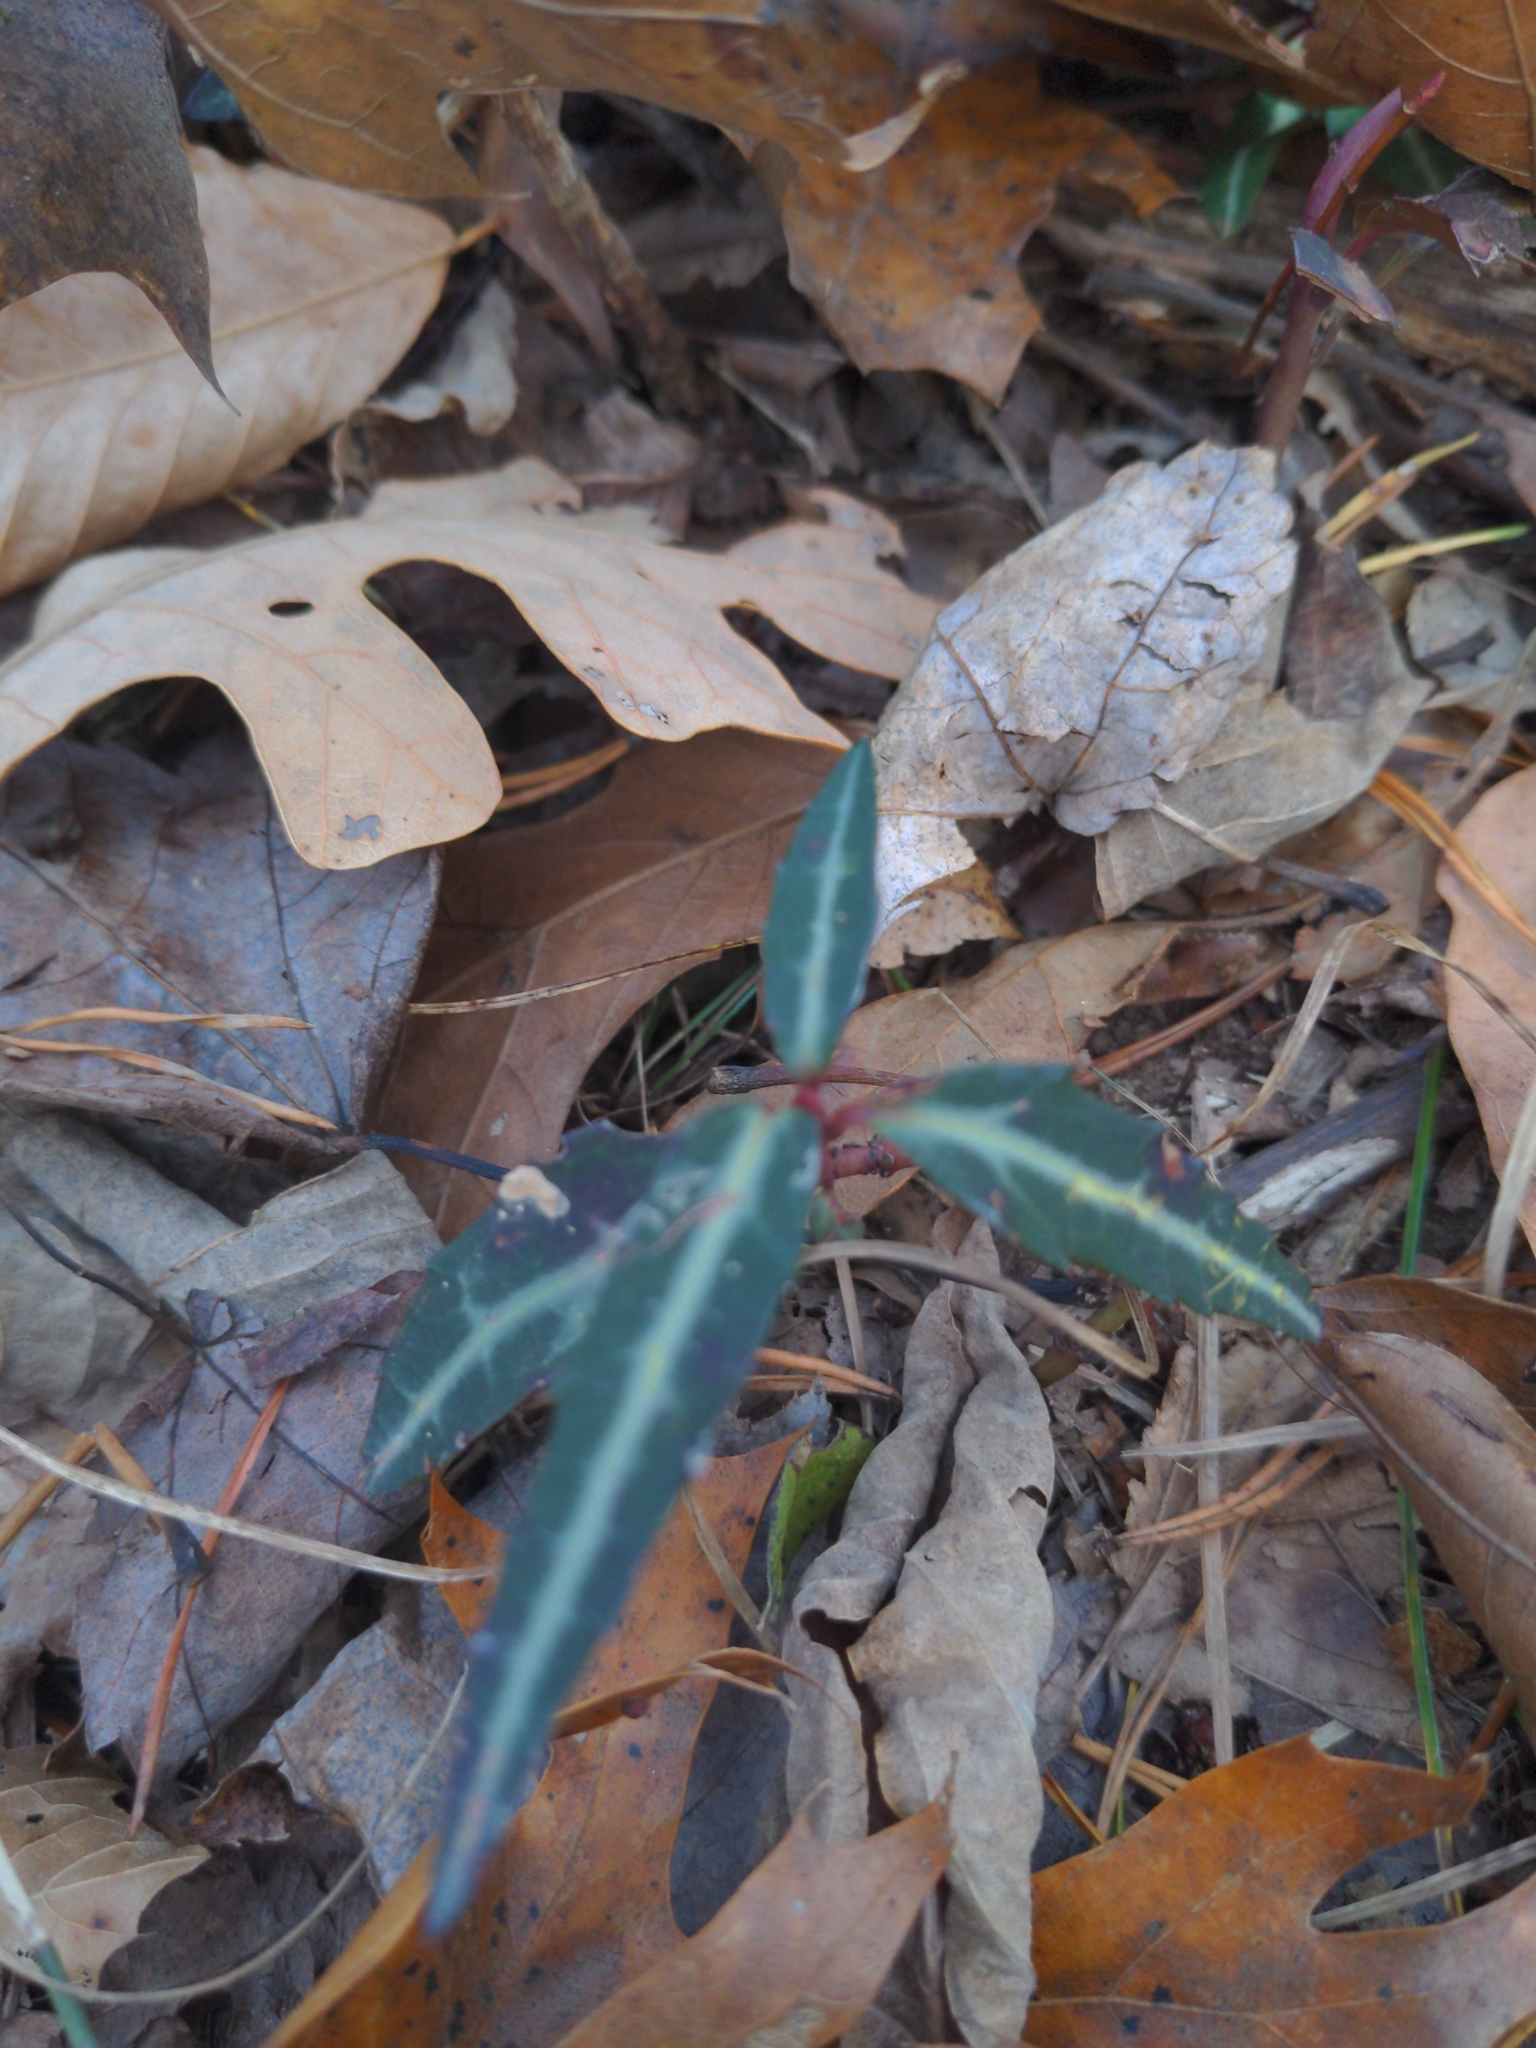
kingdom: Plantae
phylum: Tracheophyta
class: Magnoliopsida
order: Ericales
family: Ericaceae
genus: Chimaphila
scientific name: Chimaphila maculata
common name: Spotted pipsissewa
